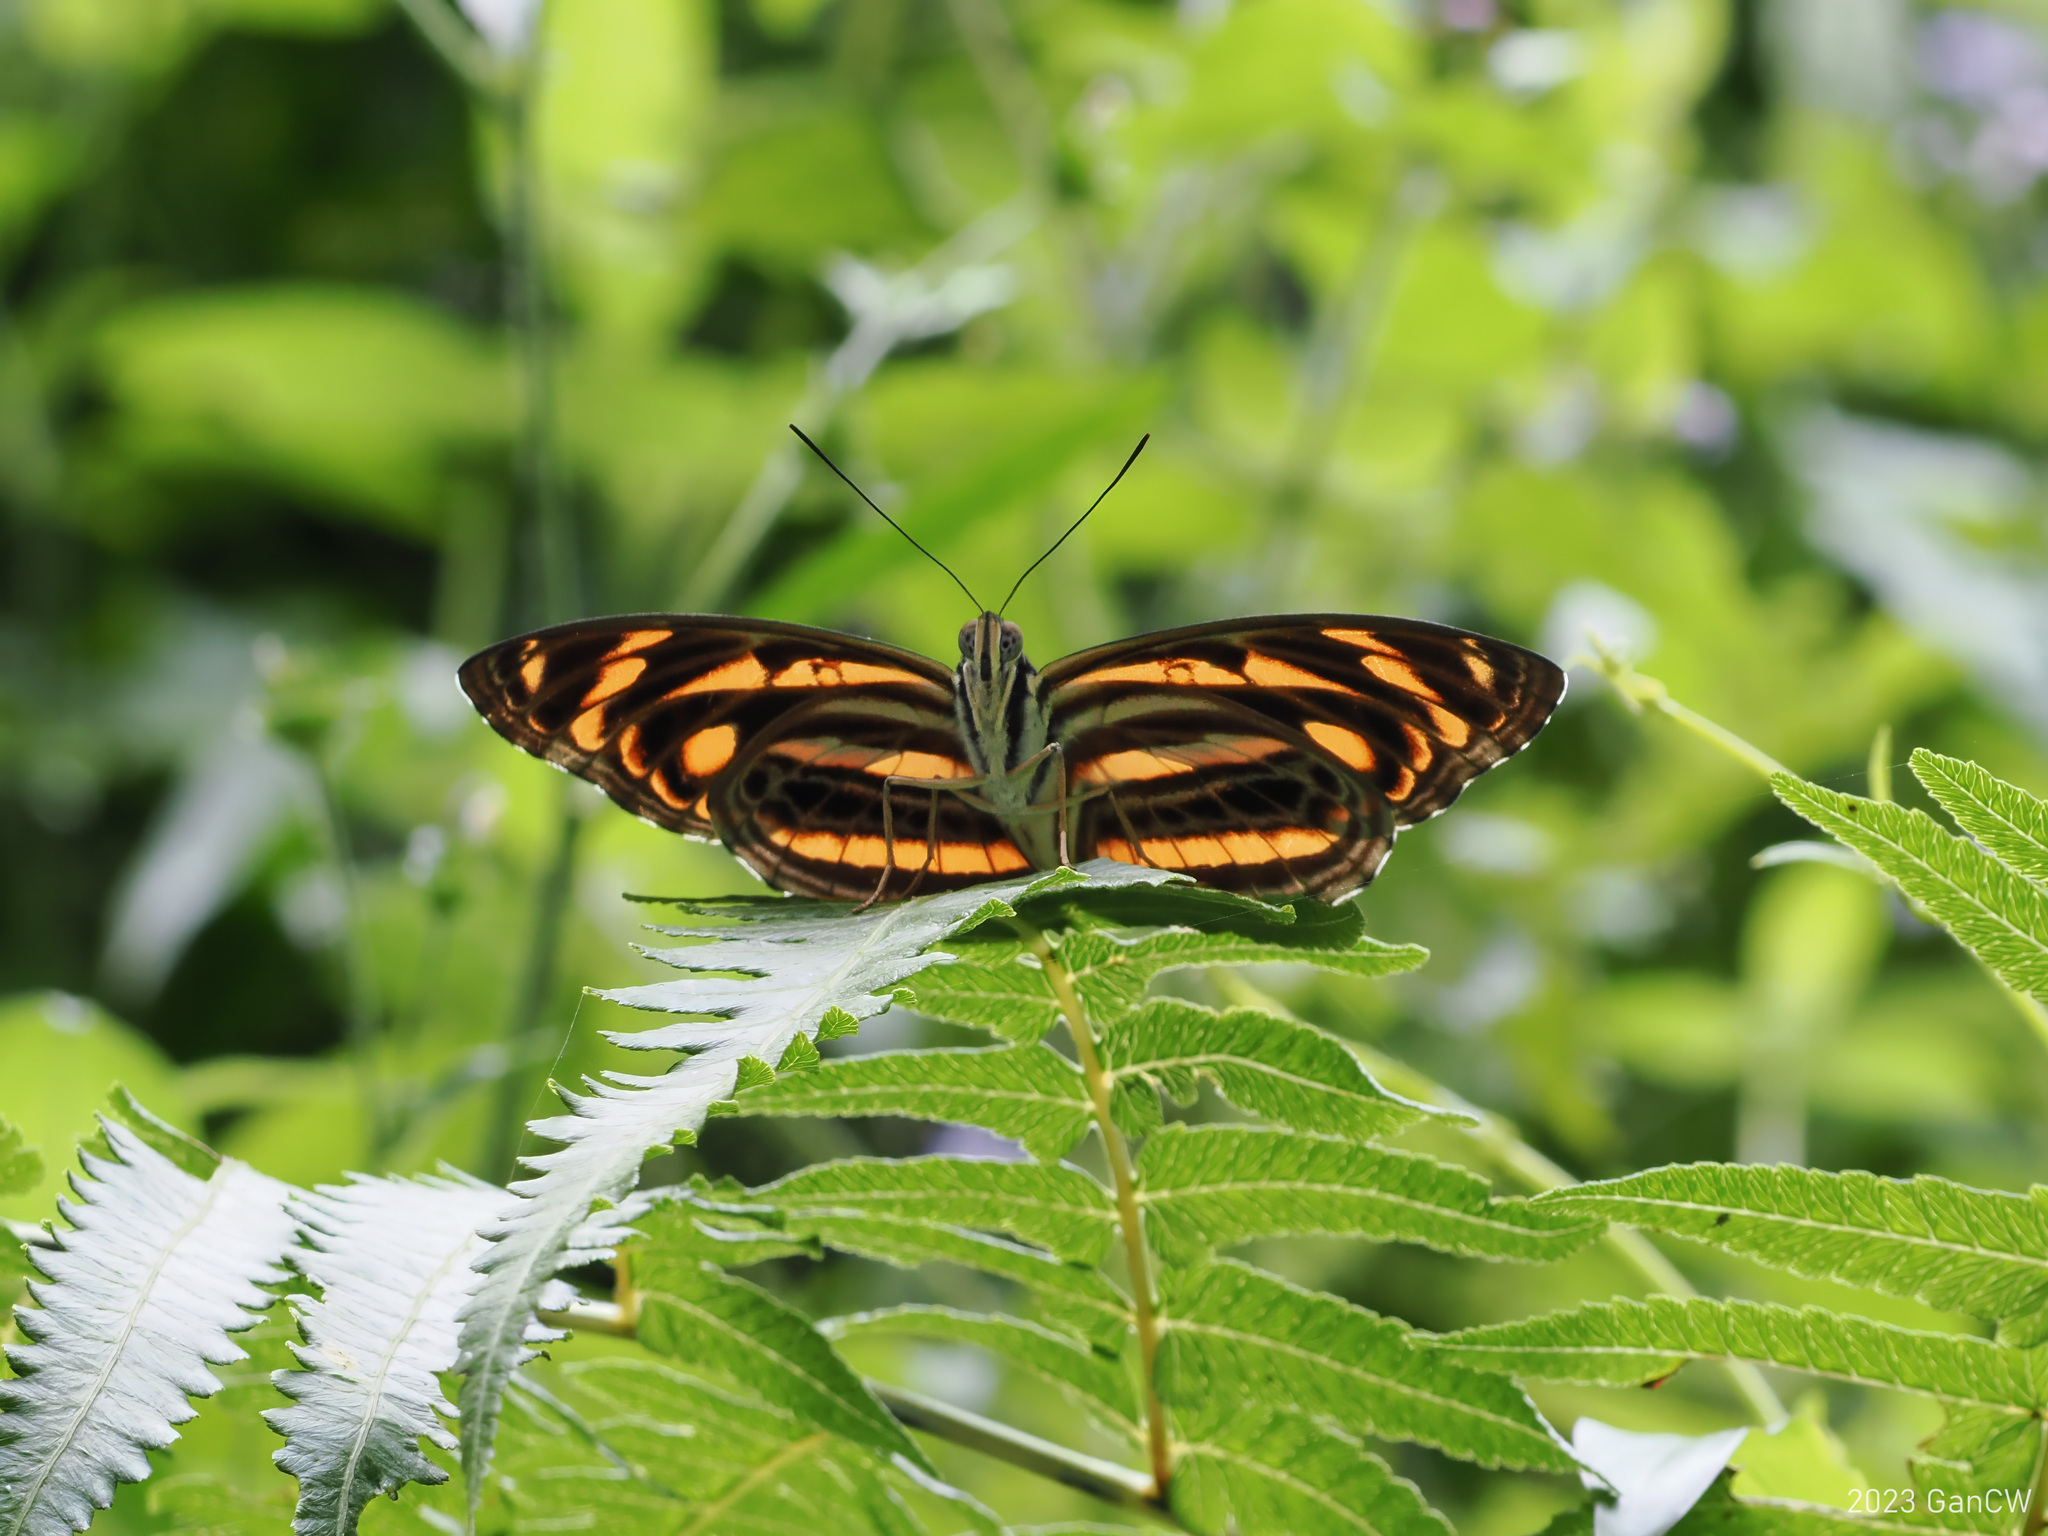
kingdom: Animalia
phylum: Arthropoda
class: Insecta
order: Lepidoptera
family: Nymphalidae
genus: Pantoporia
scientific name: Pantoporia eulimene
